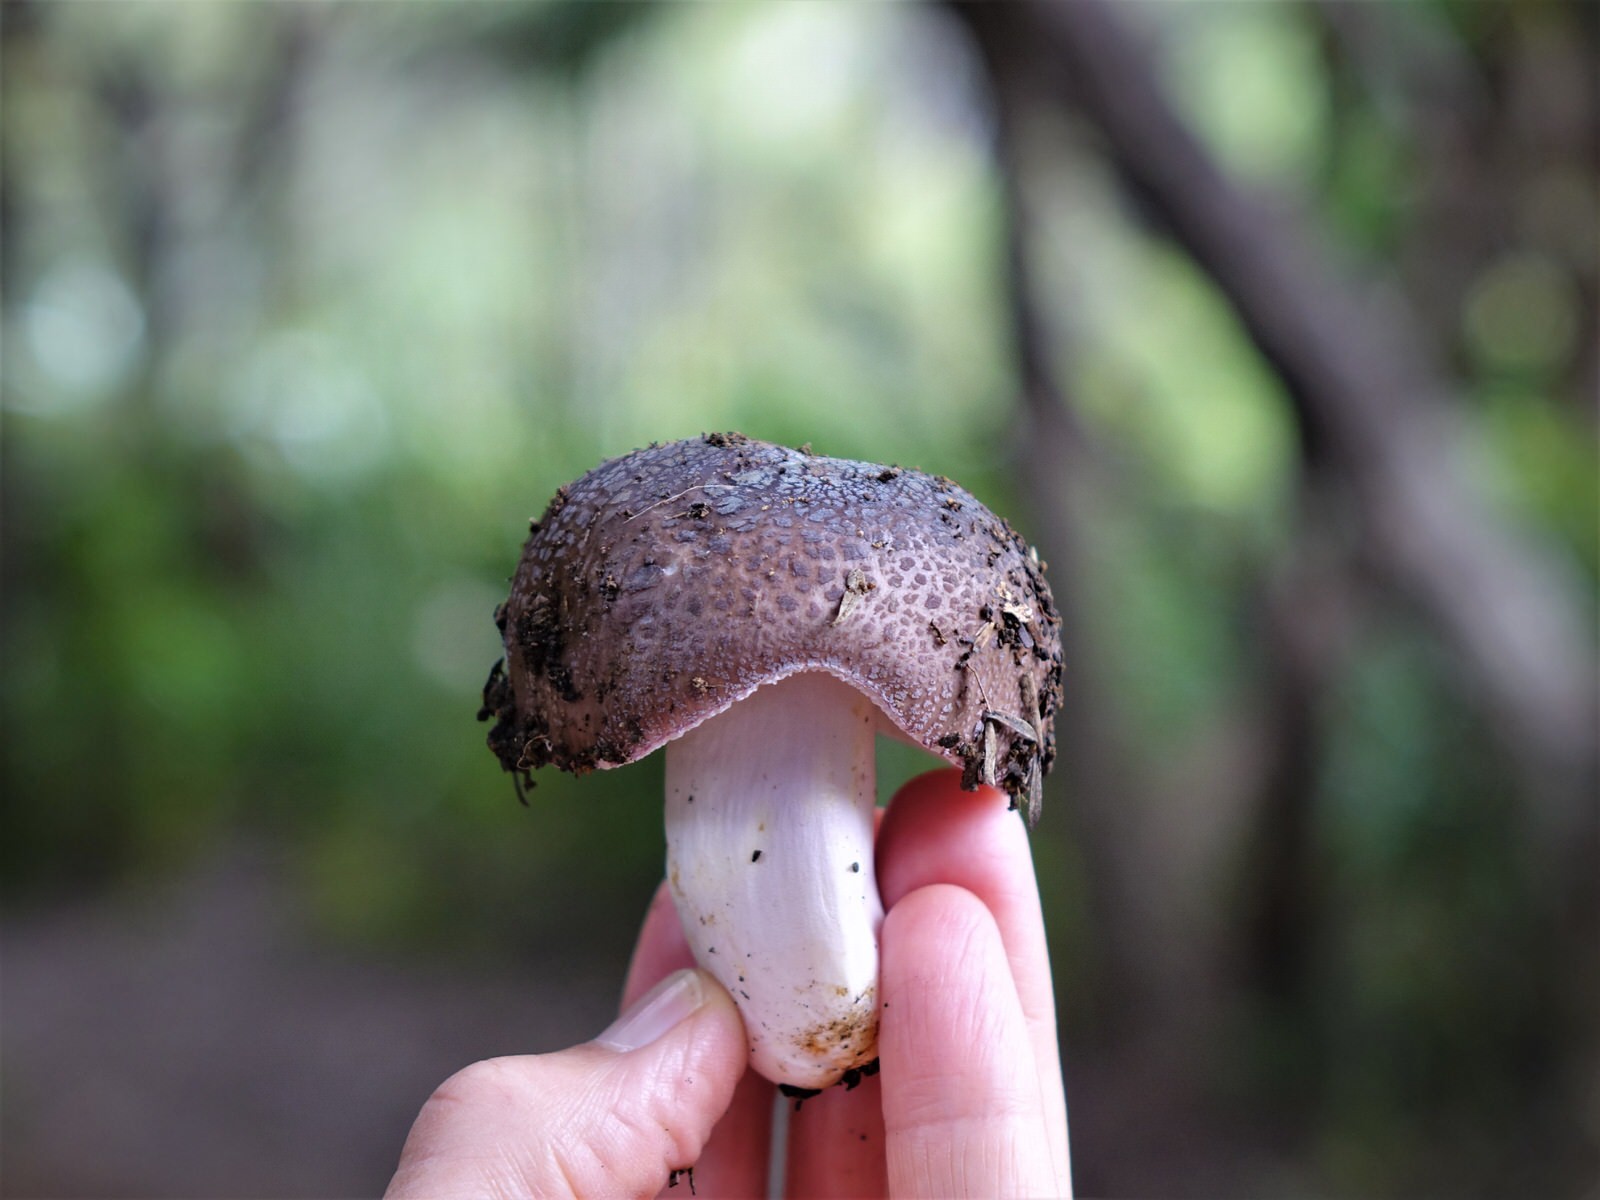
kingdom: Fungi
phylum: Basidiomycota
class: Agaricomycetes
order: Russulales
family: Russulaceae
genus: Russula
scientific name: Russula griseoviridis
